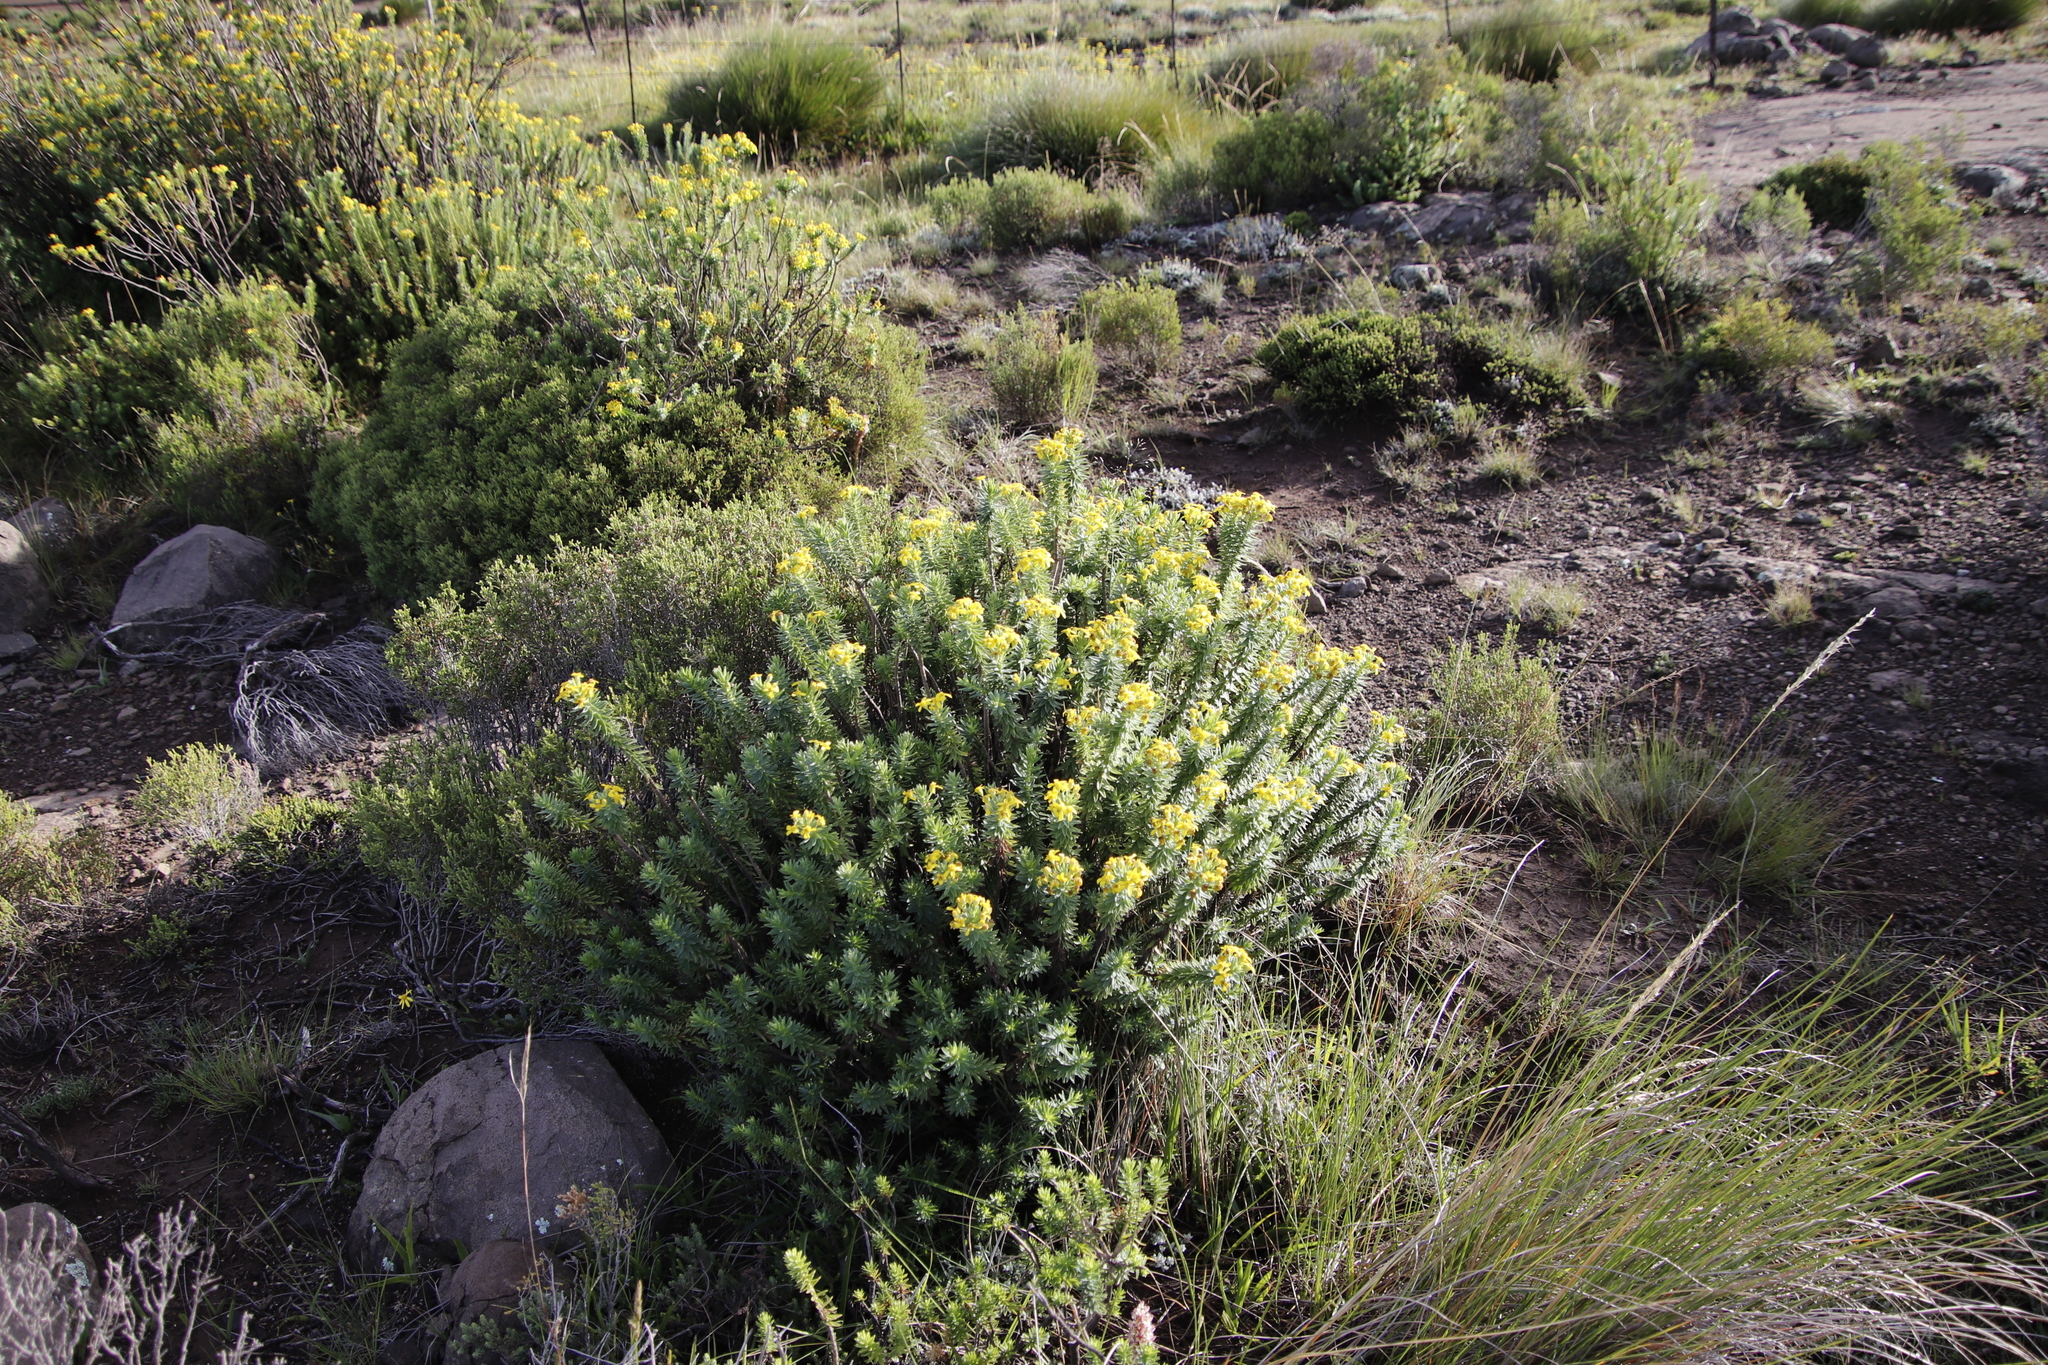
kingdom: Plantae
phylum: Tracheophyta
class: Magnoliopsida
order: Asterales
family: Asteraceae
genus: Euryops
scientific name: Euryops tysonii
